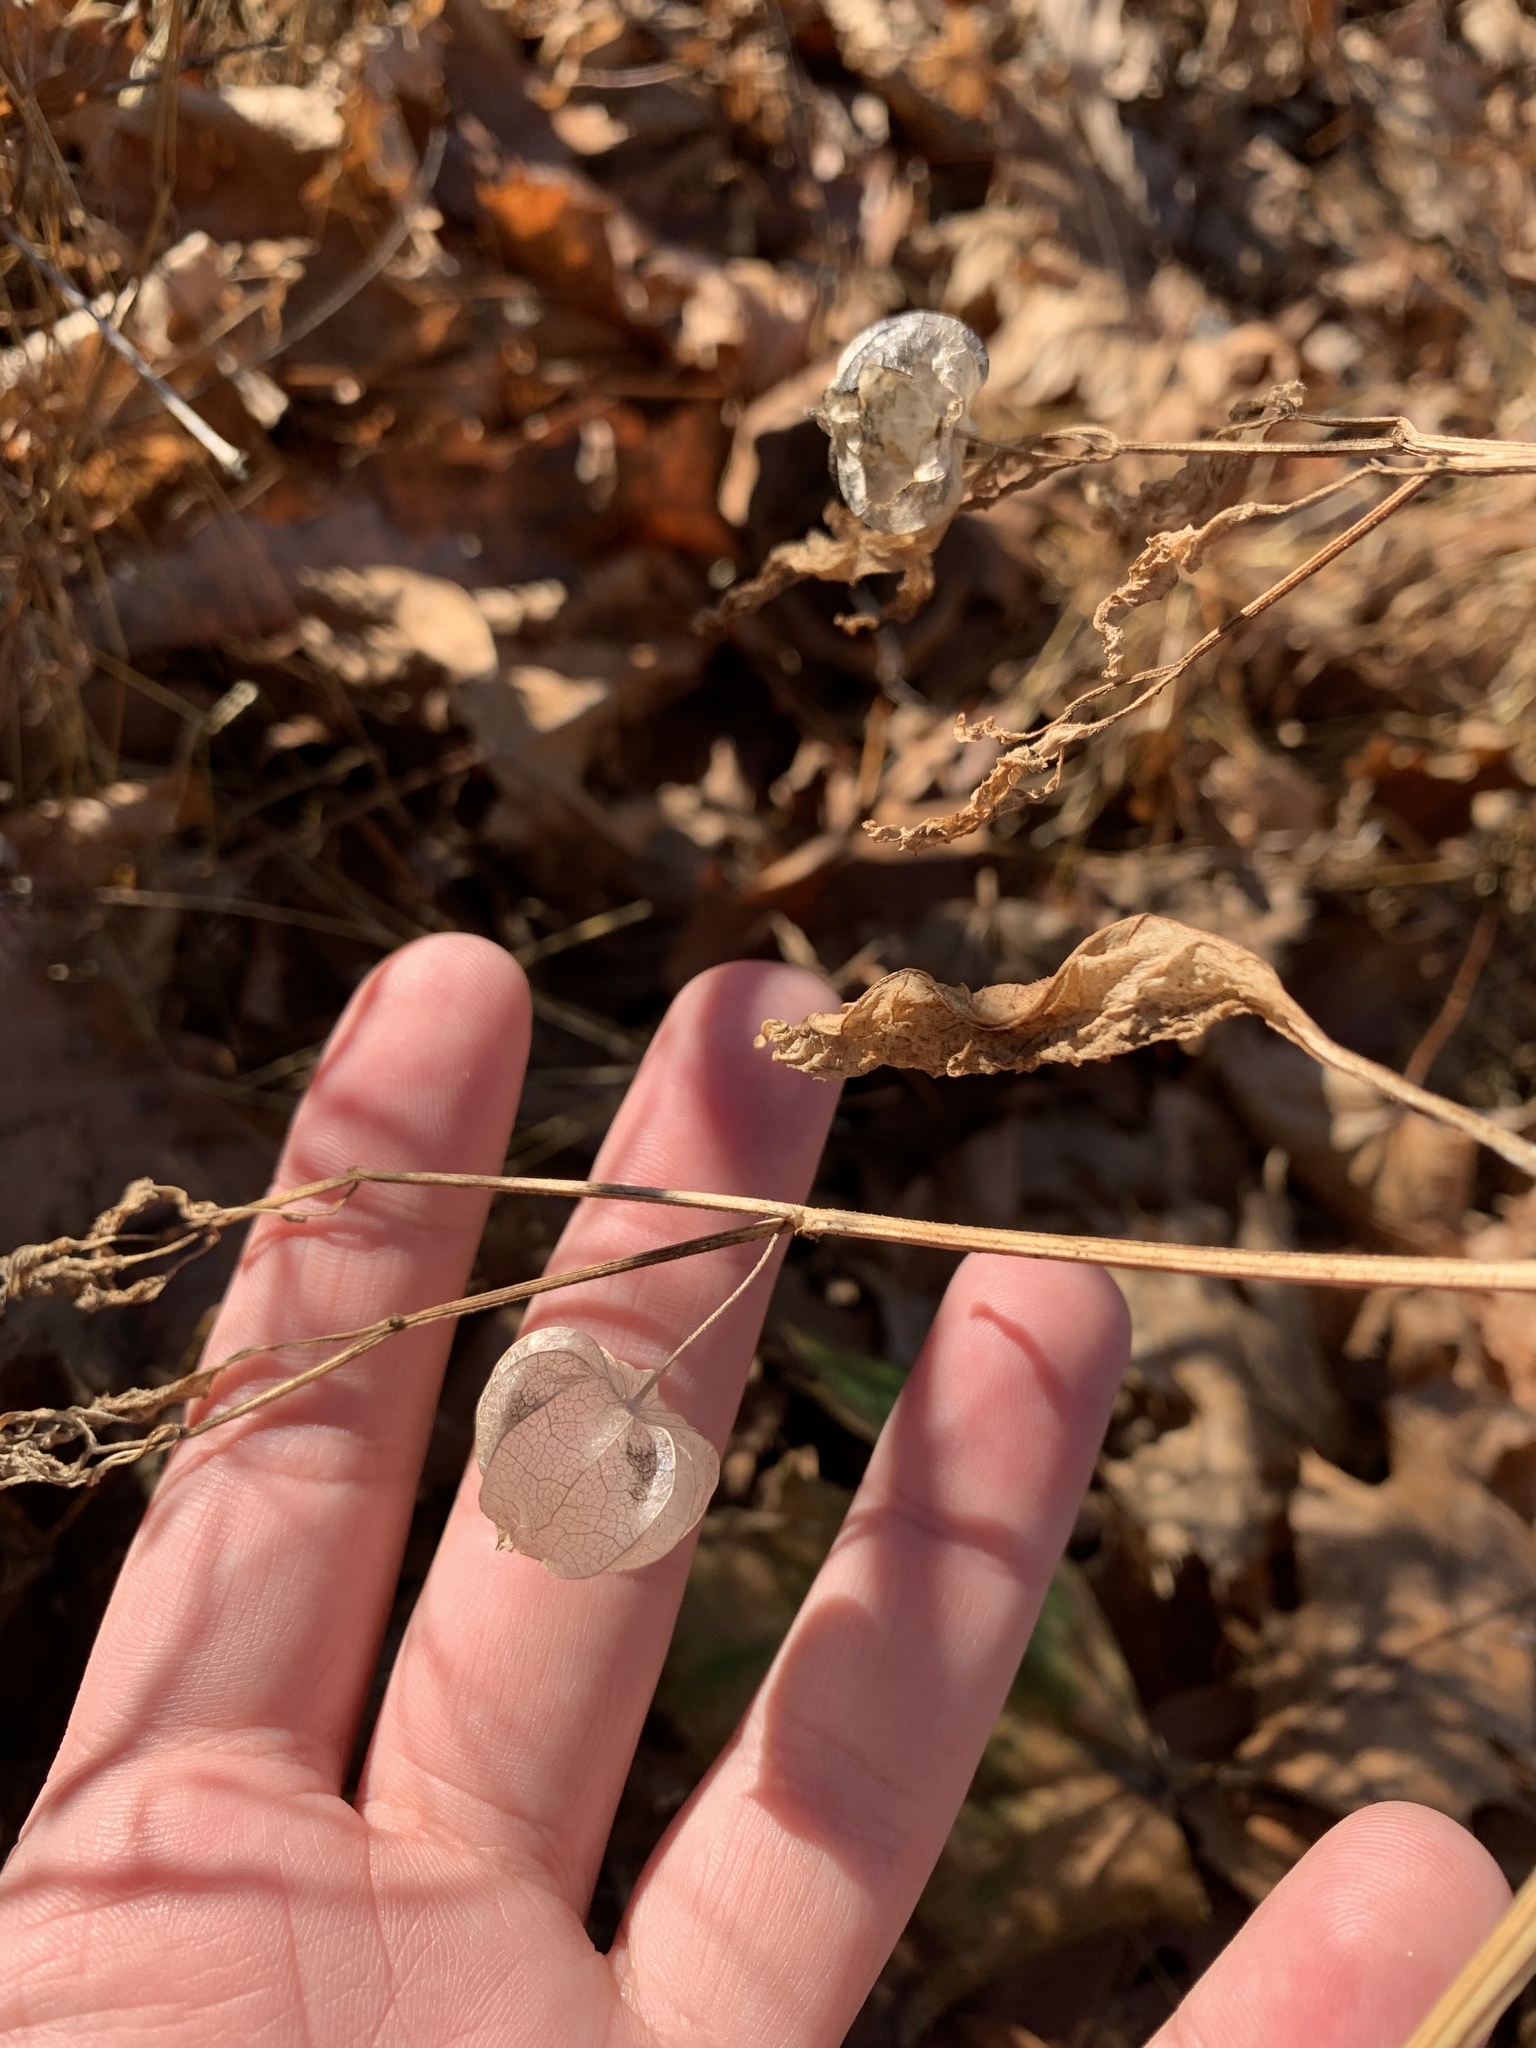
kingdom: Plantae
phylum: Tracheophyta
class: Magnoliopsida
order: Solanales
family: Solanaceae
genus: Physalis
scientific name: Physalis
